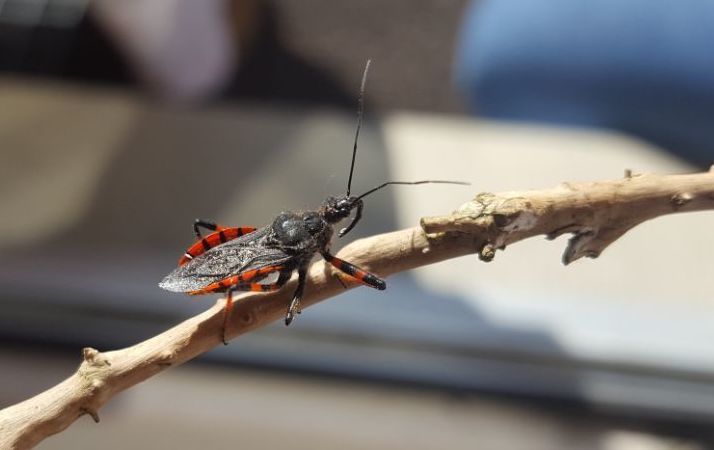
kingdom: Animalia
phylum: Arthropoda
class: Insecta
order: Hemiptera
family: Reduviidae
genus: Rhynocoris
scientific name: Rhynocoris annulatus
